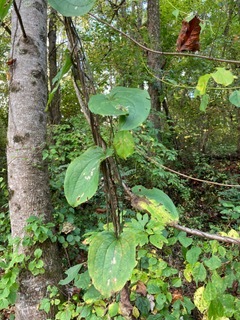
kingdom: Plantae
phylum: Tracheophyta
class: Liliopsida
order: Liliales
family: Smilacaceae
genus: Smilax
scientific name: Smilax tamnoides
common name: Hellfetter
